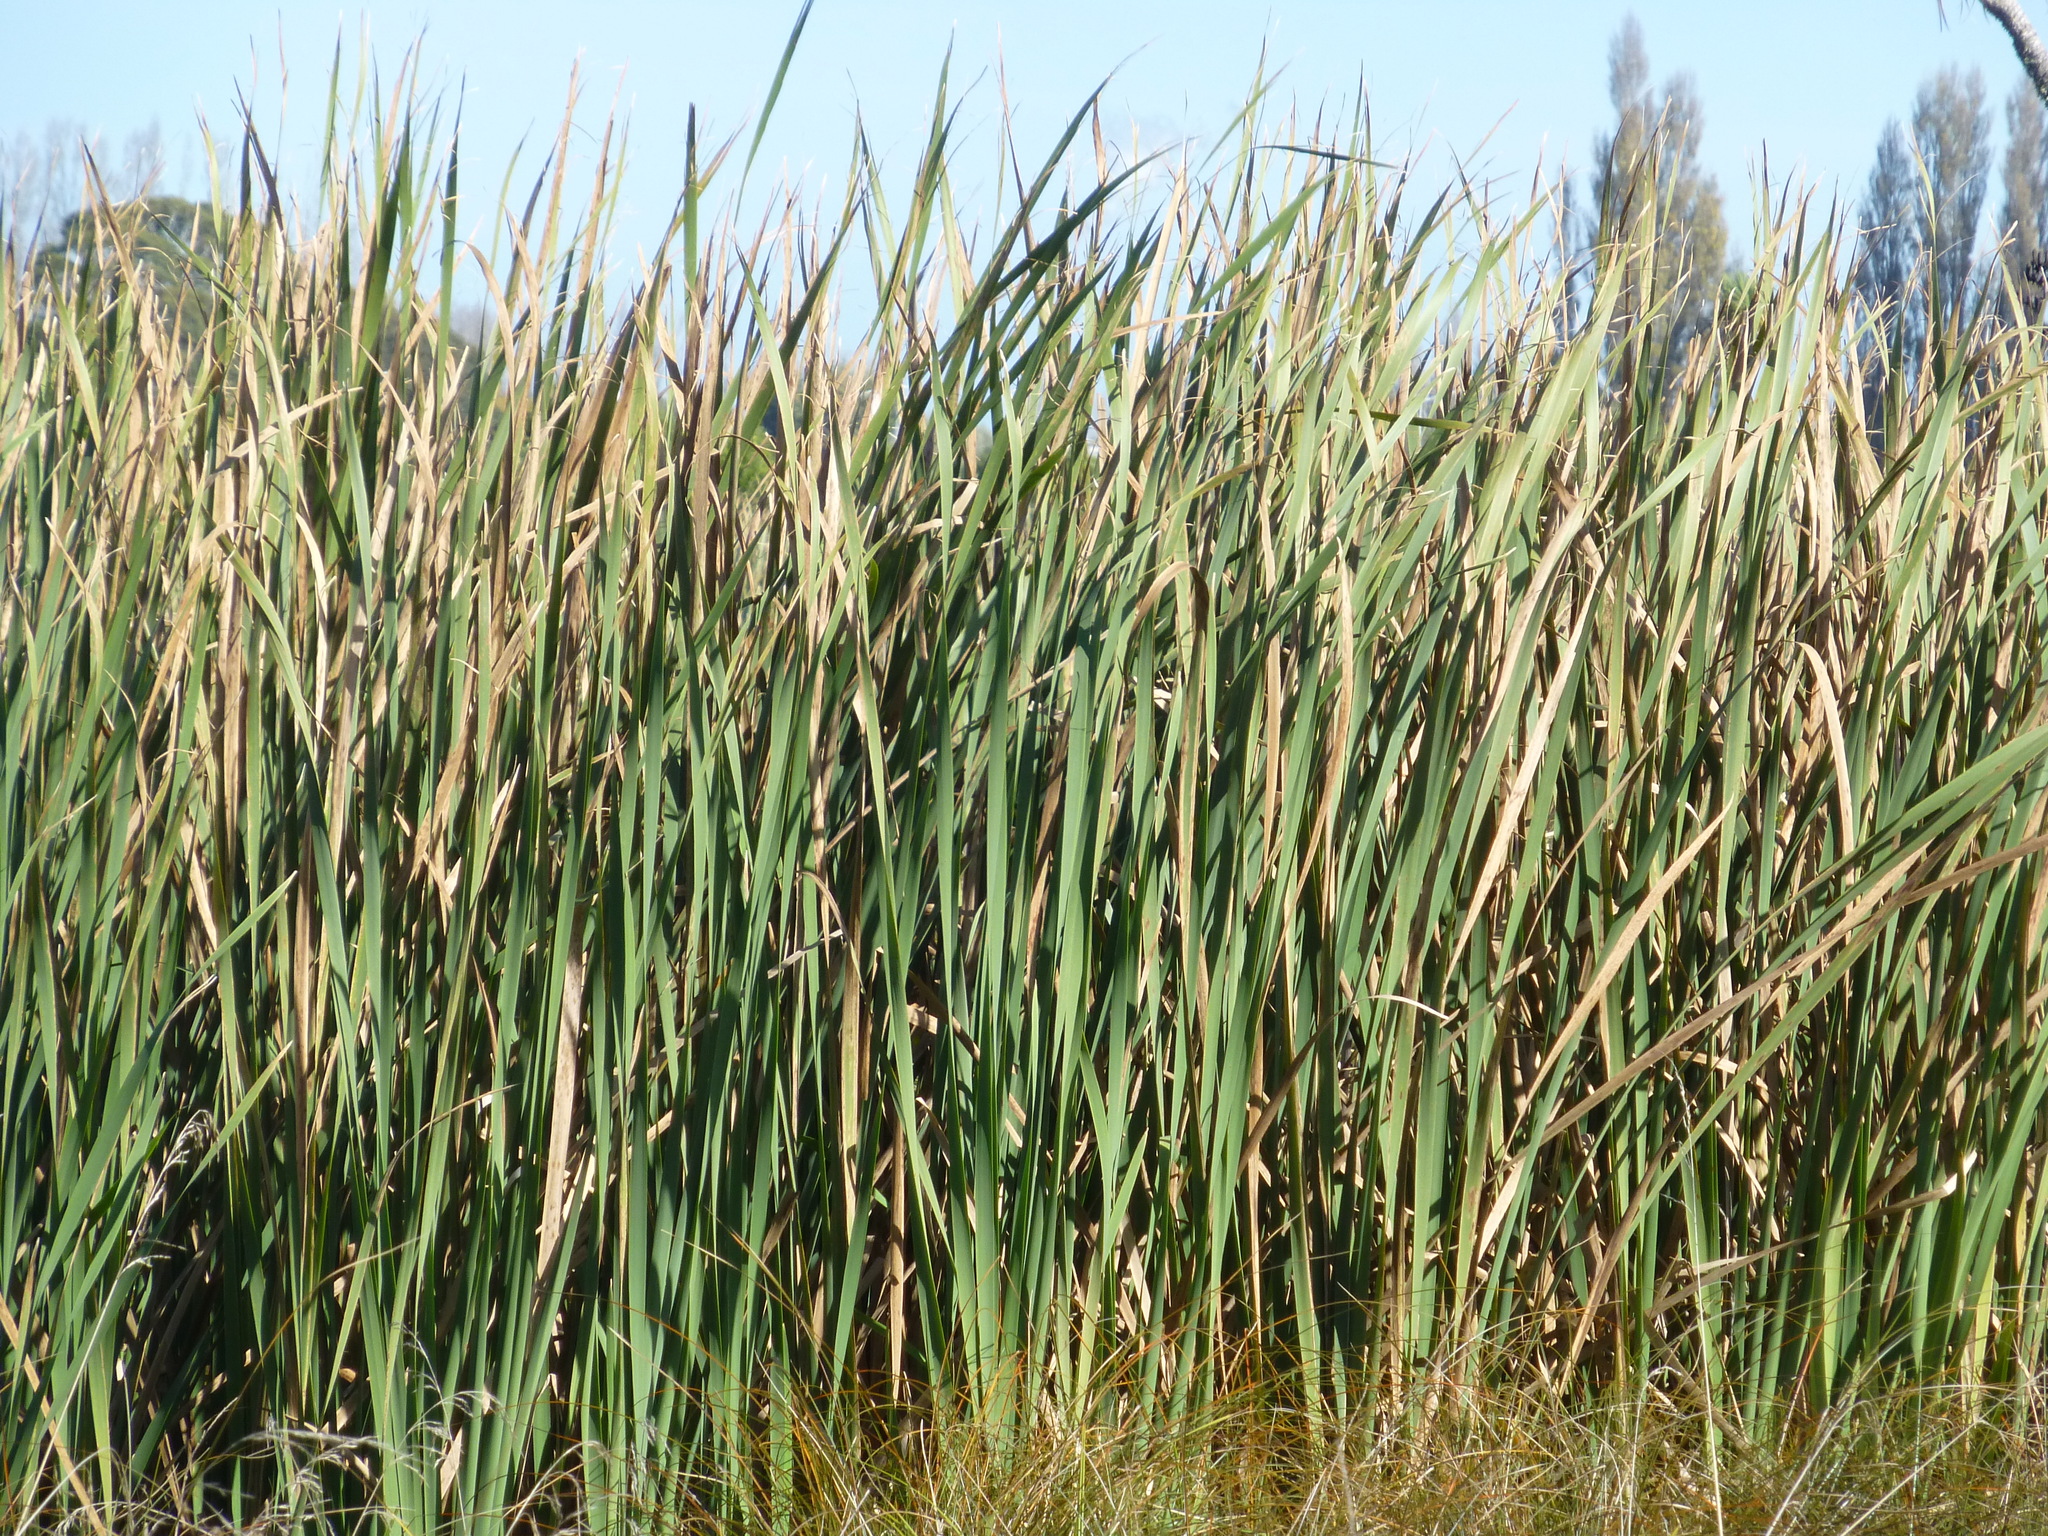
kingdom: Plantae
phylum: Tracheophyta
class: Liliopsida
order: Poales
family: Typhaceae
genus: Typha
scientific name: Typha orientalis
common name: Bullrush
